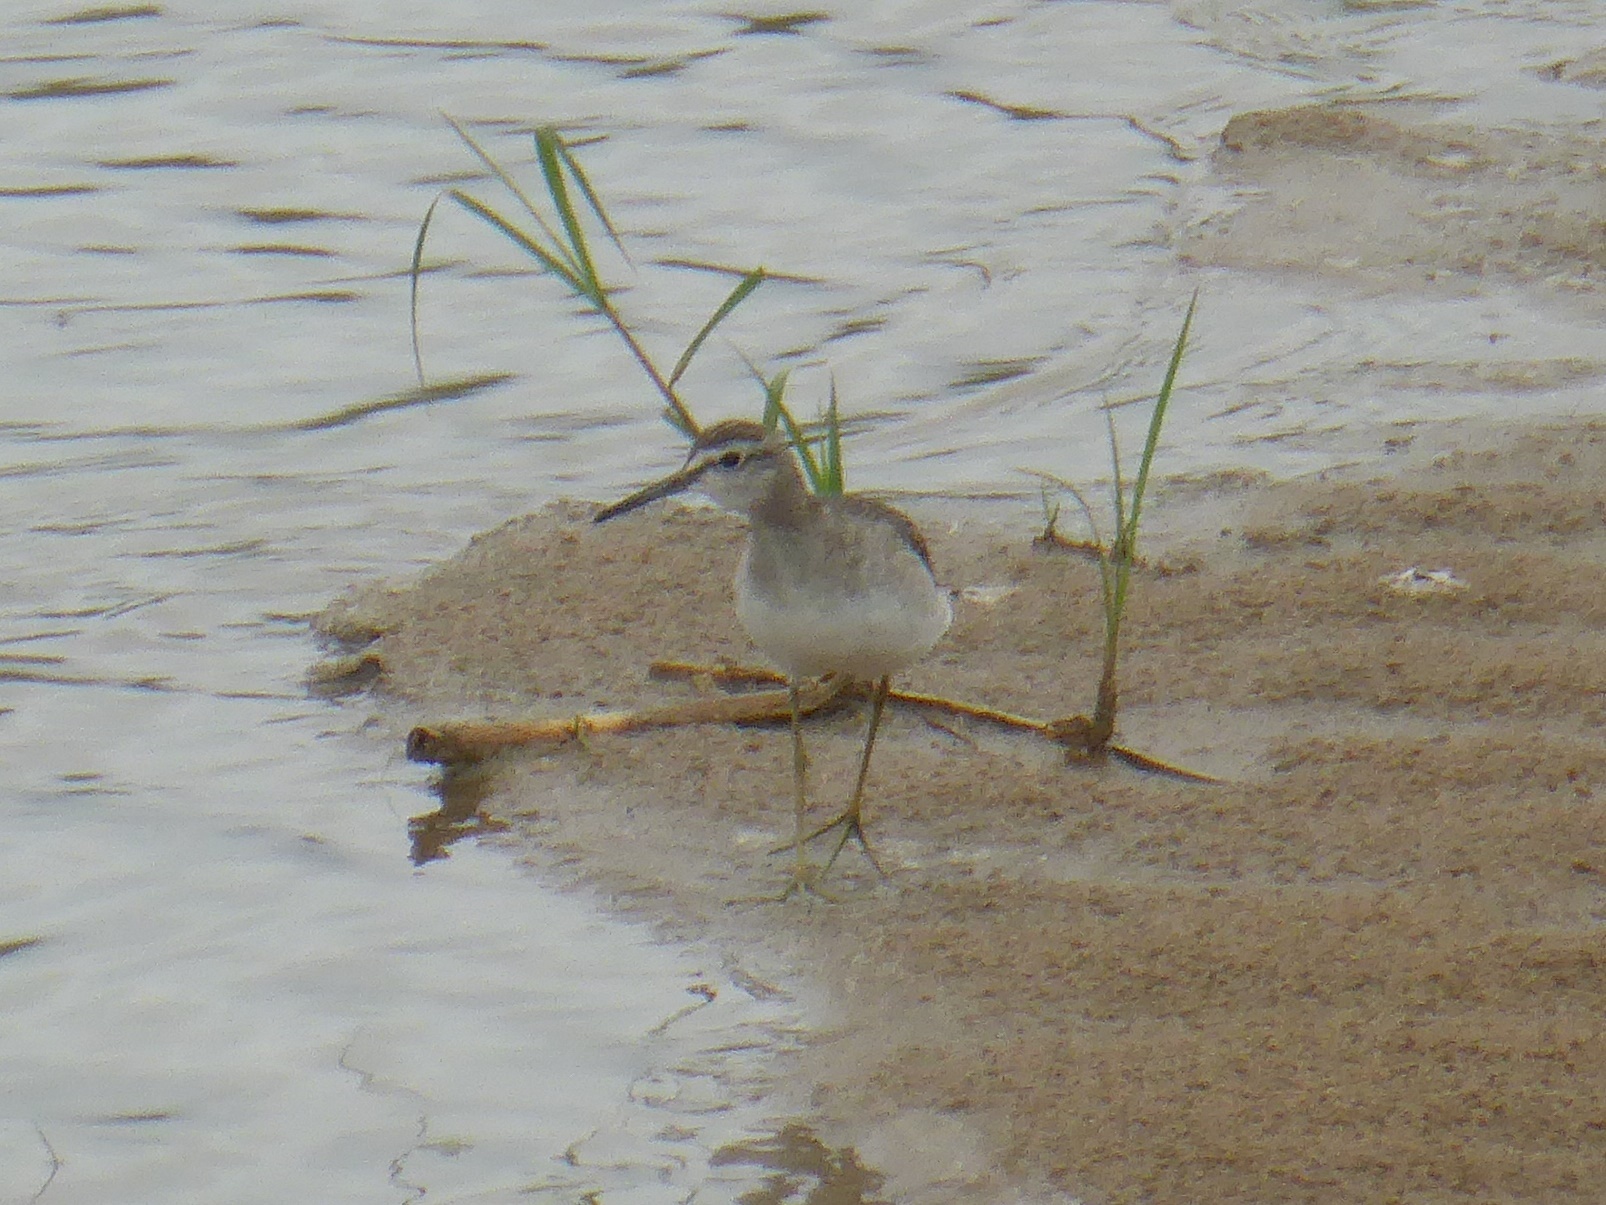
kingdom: Animalia
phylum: Chordata
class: Aves
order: Charadriiformes
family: Scolopacidae
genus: Tringa
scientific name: Tringa glareola
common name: Wood sandpiper
